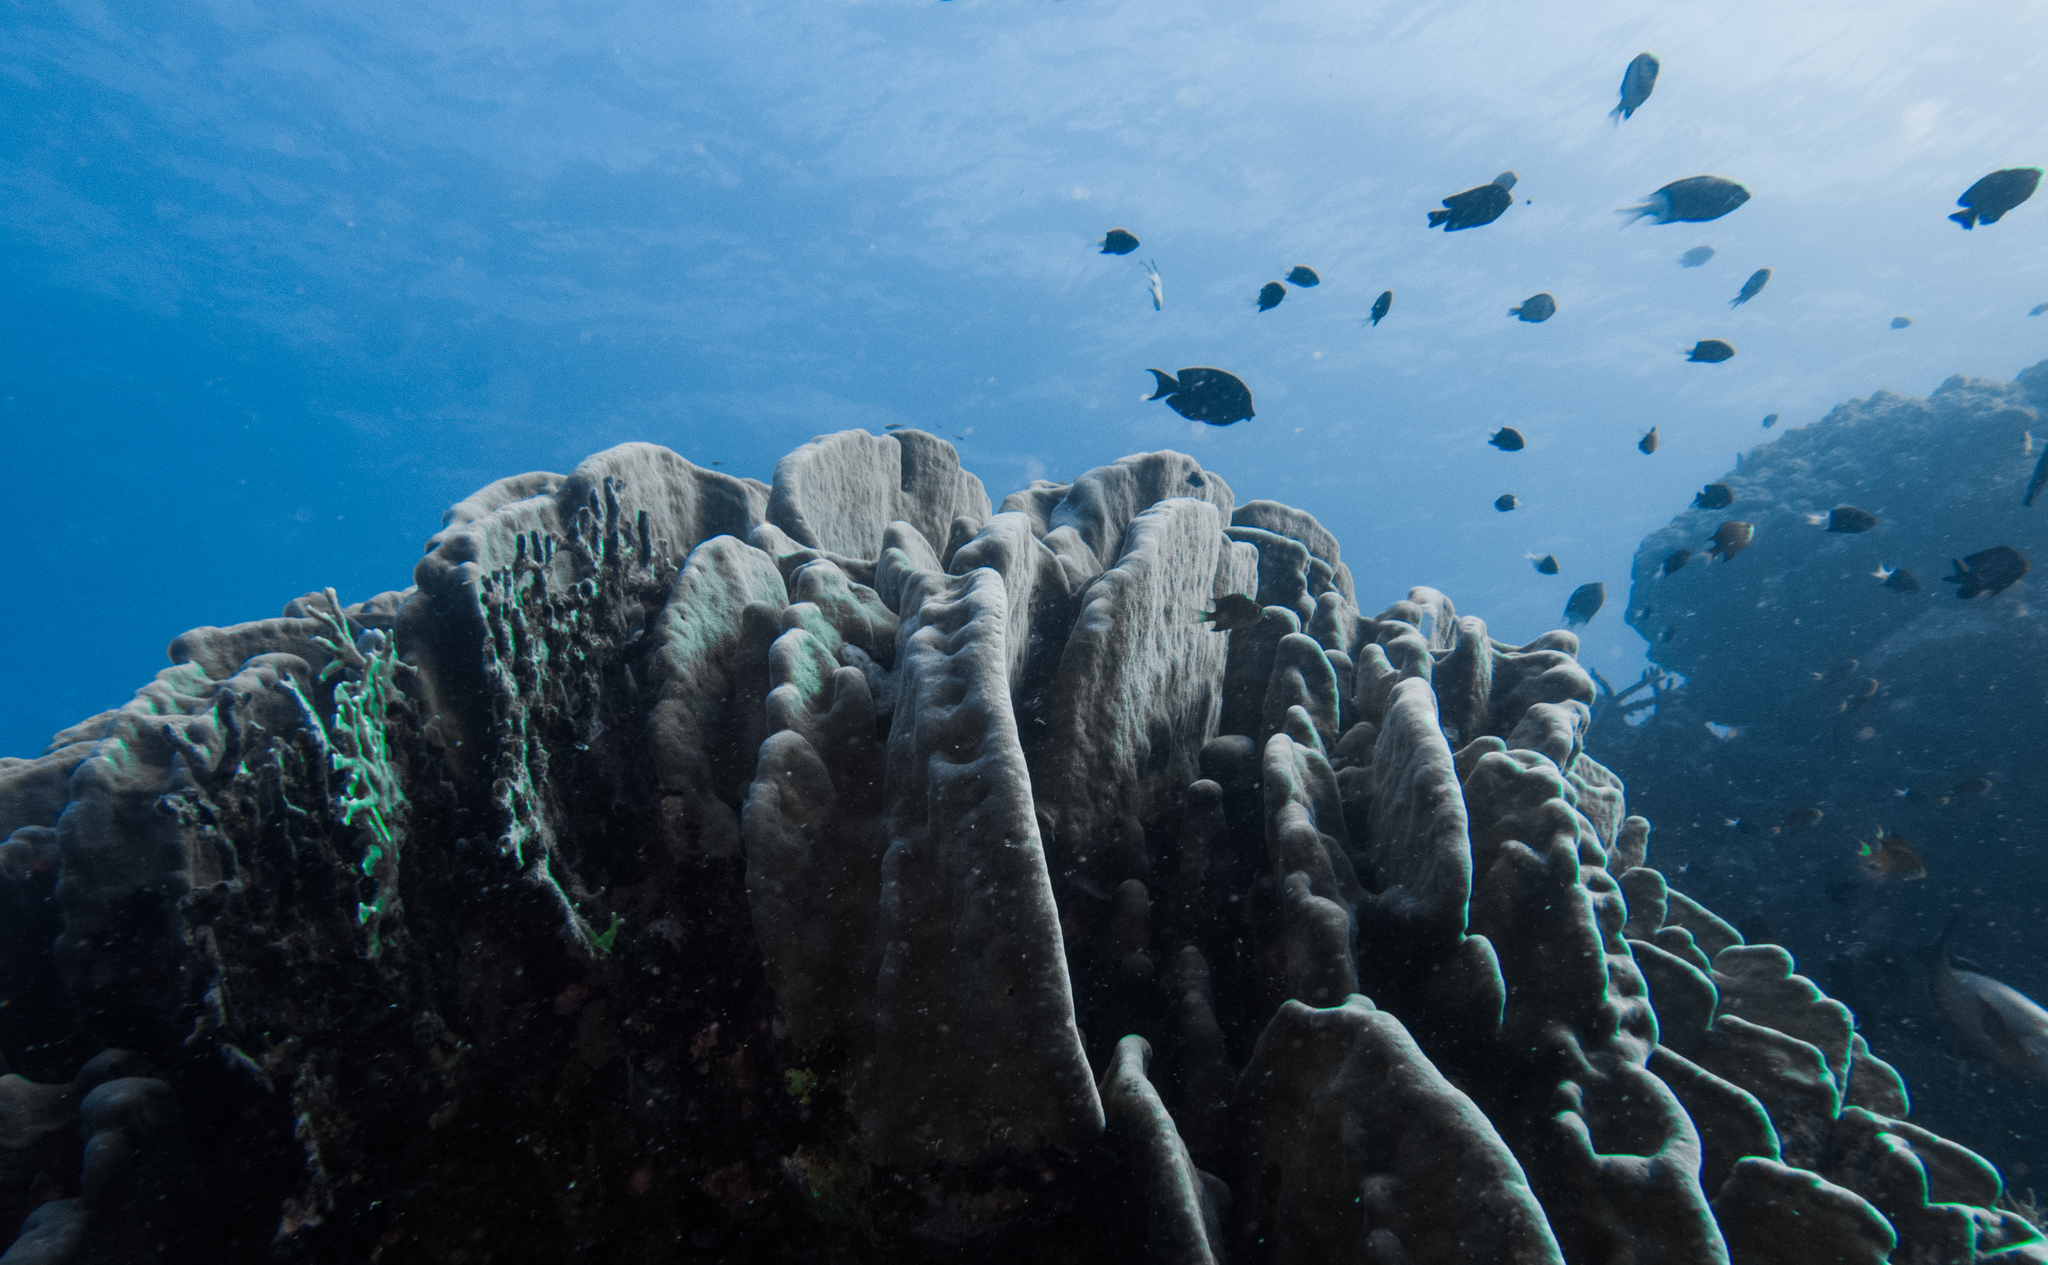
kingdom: Animalia
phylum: Cnidaria
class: Anthozoa
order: Scleractinia
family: Agariciidae
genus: Pavona
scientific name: Pavona duerdeni
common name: Leaf coral
